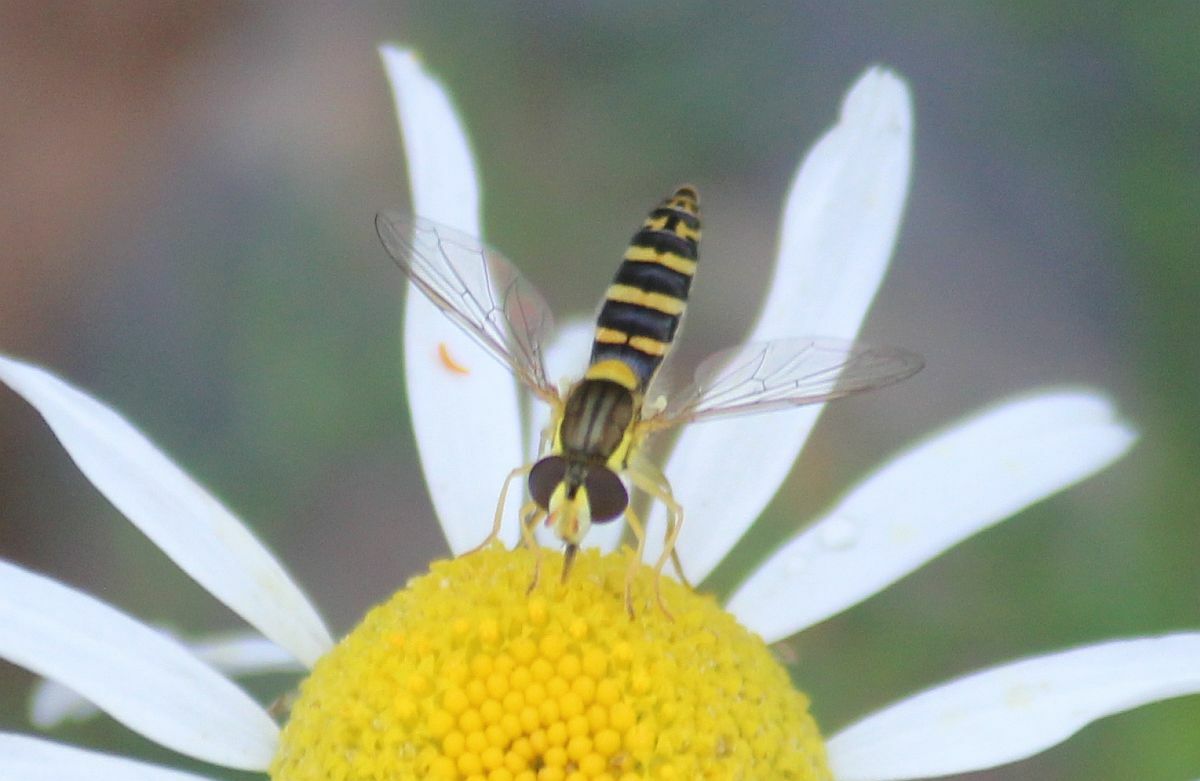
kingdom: Animalia
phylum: Arthropoda
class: Insecta
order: Diptera
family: Syrphidae
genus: Sphaerophoria
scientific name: Sphaerophoria
